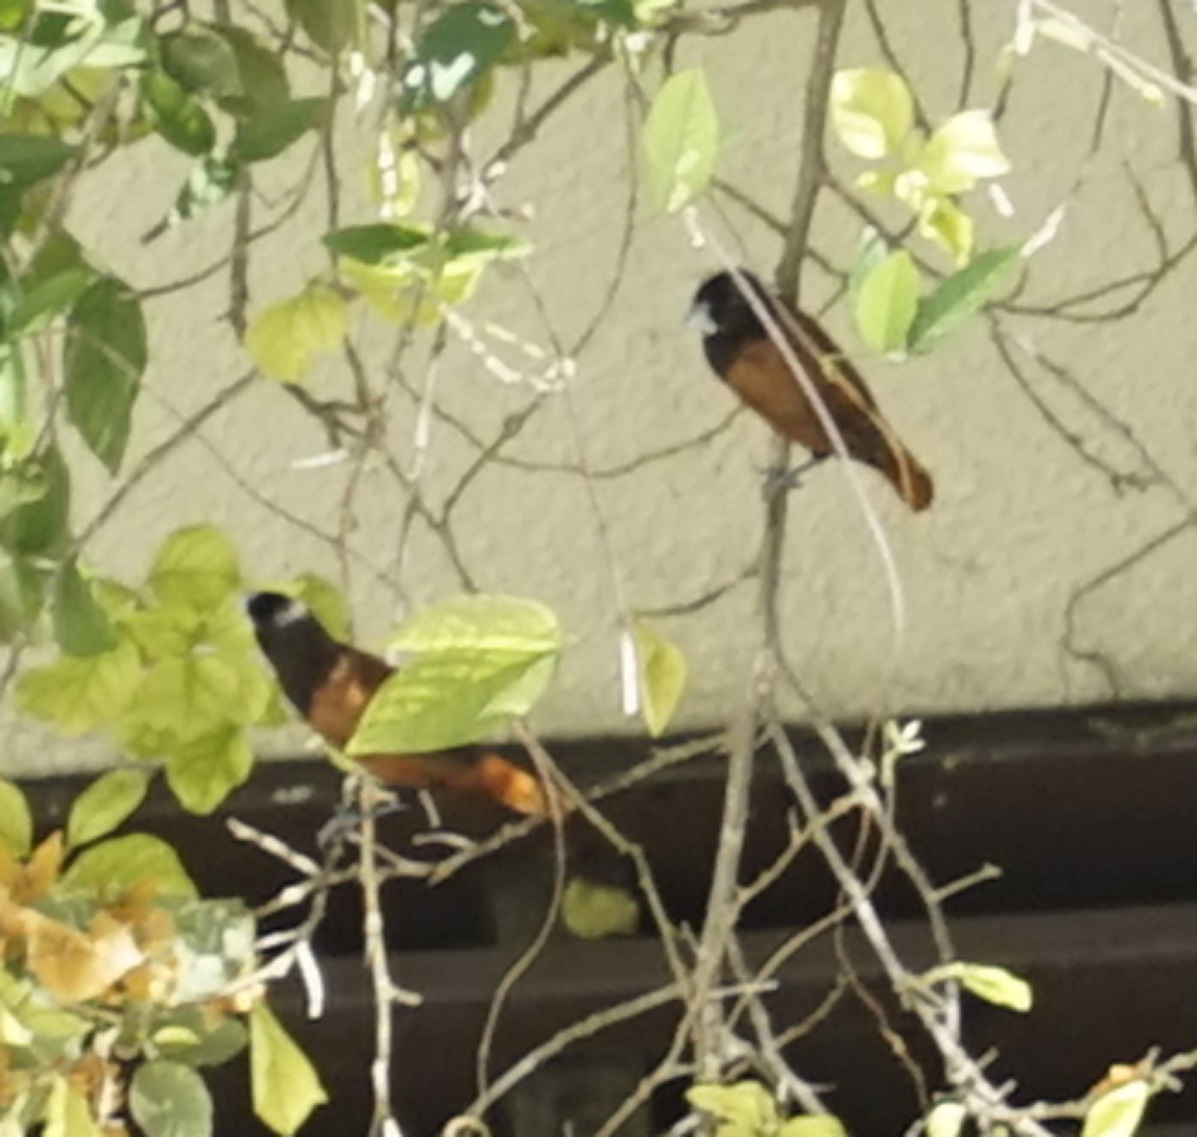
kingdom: Animalia
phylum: Chordata
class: Aves
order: Passeriformes
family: Estrildidae
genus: Lonchura
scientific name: Lonchura atricapilla
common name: Chestnut munia
